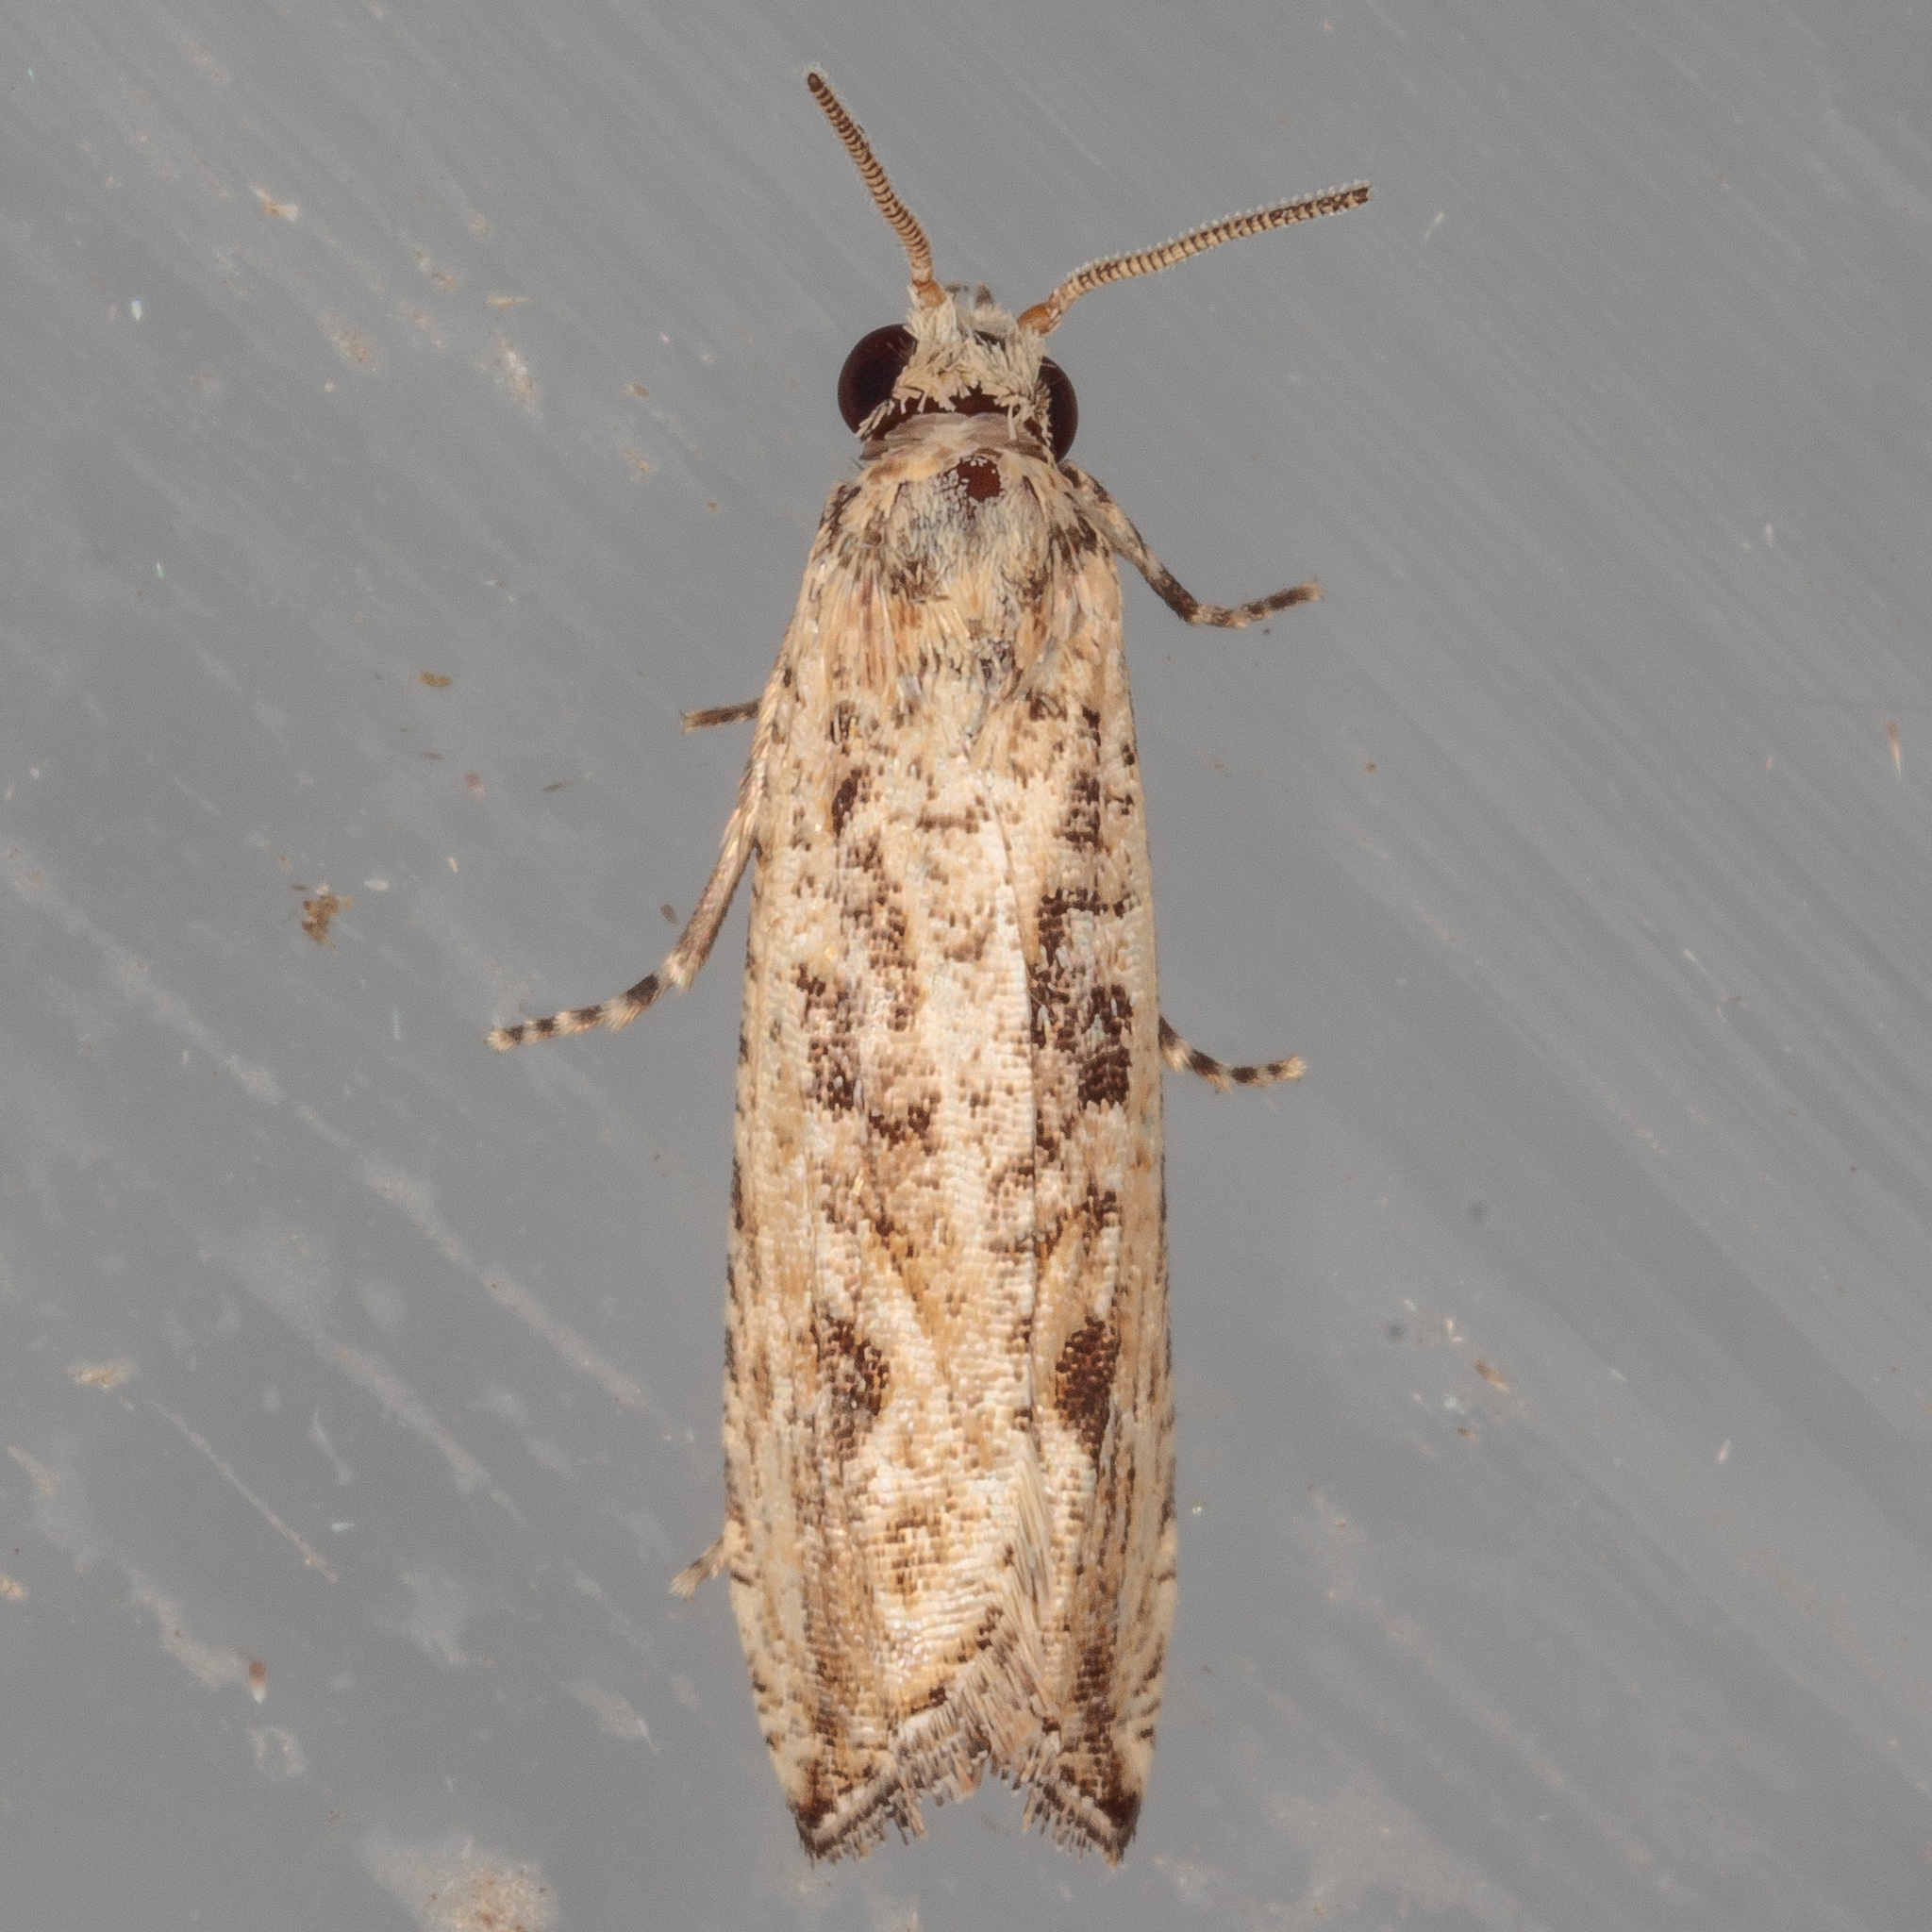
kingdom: Animalia
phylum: Arthropoda
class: Insecta
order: Lepidoptera
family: Tortricidae
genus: Bactra
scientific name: Bactra verutana
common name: Javelin moth
